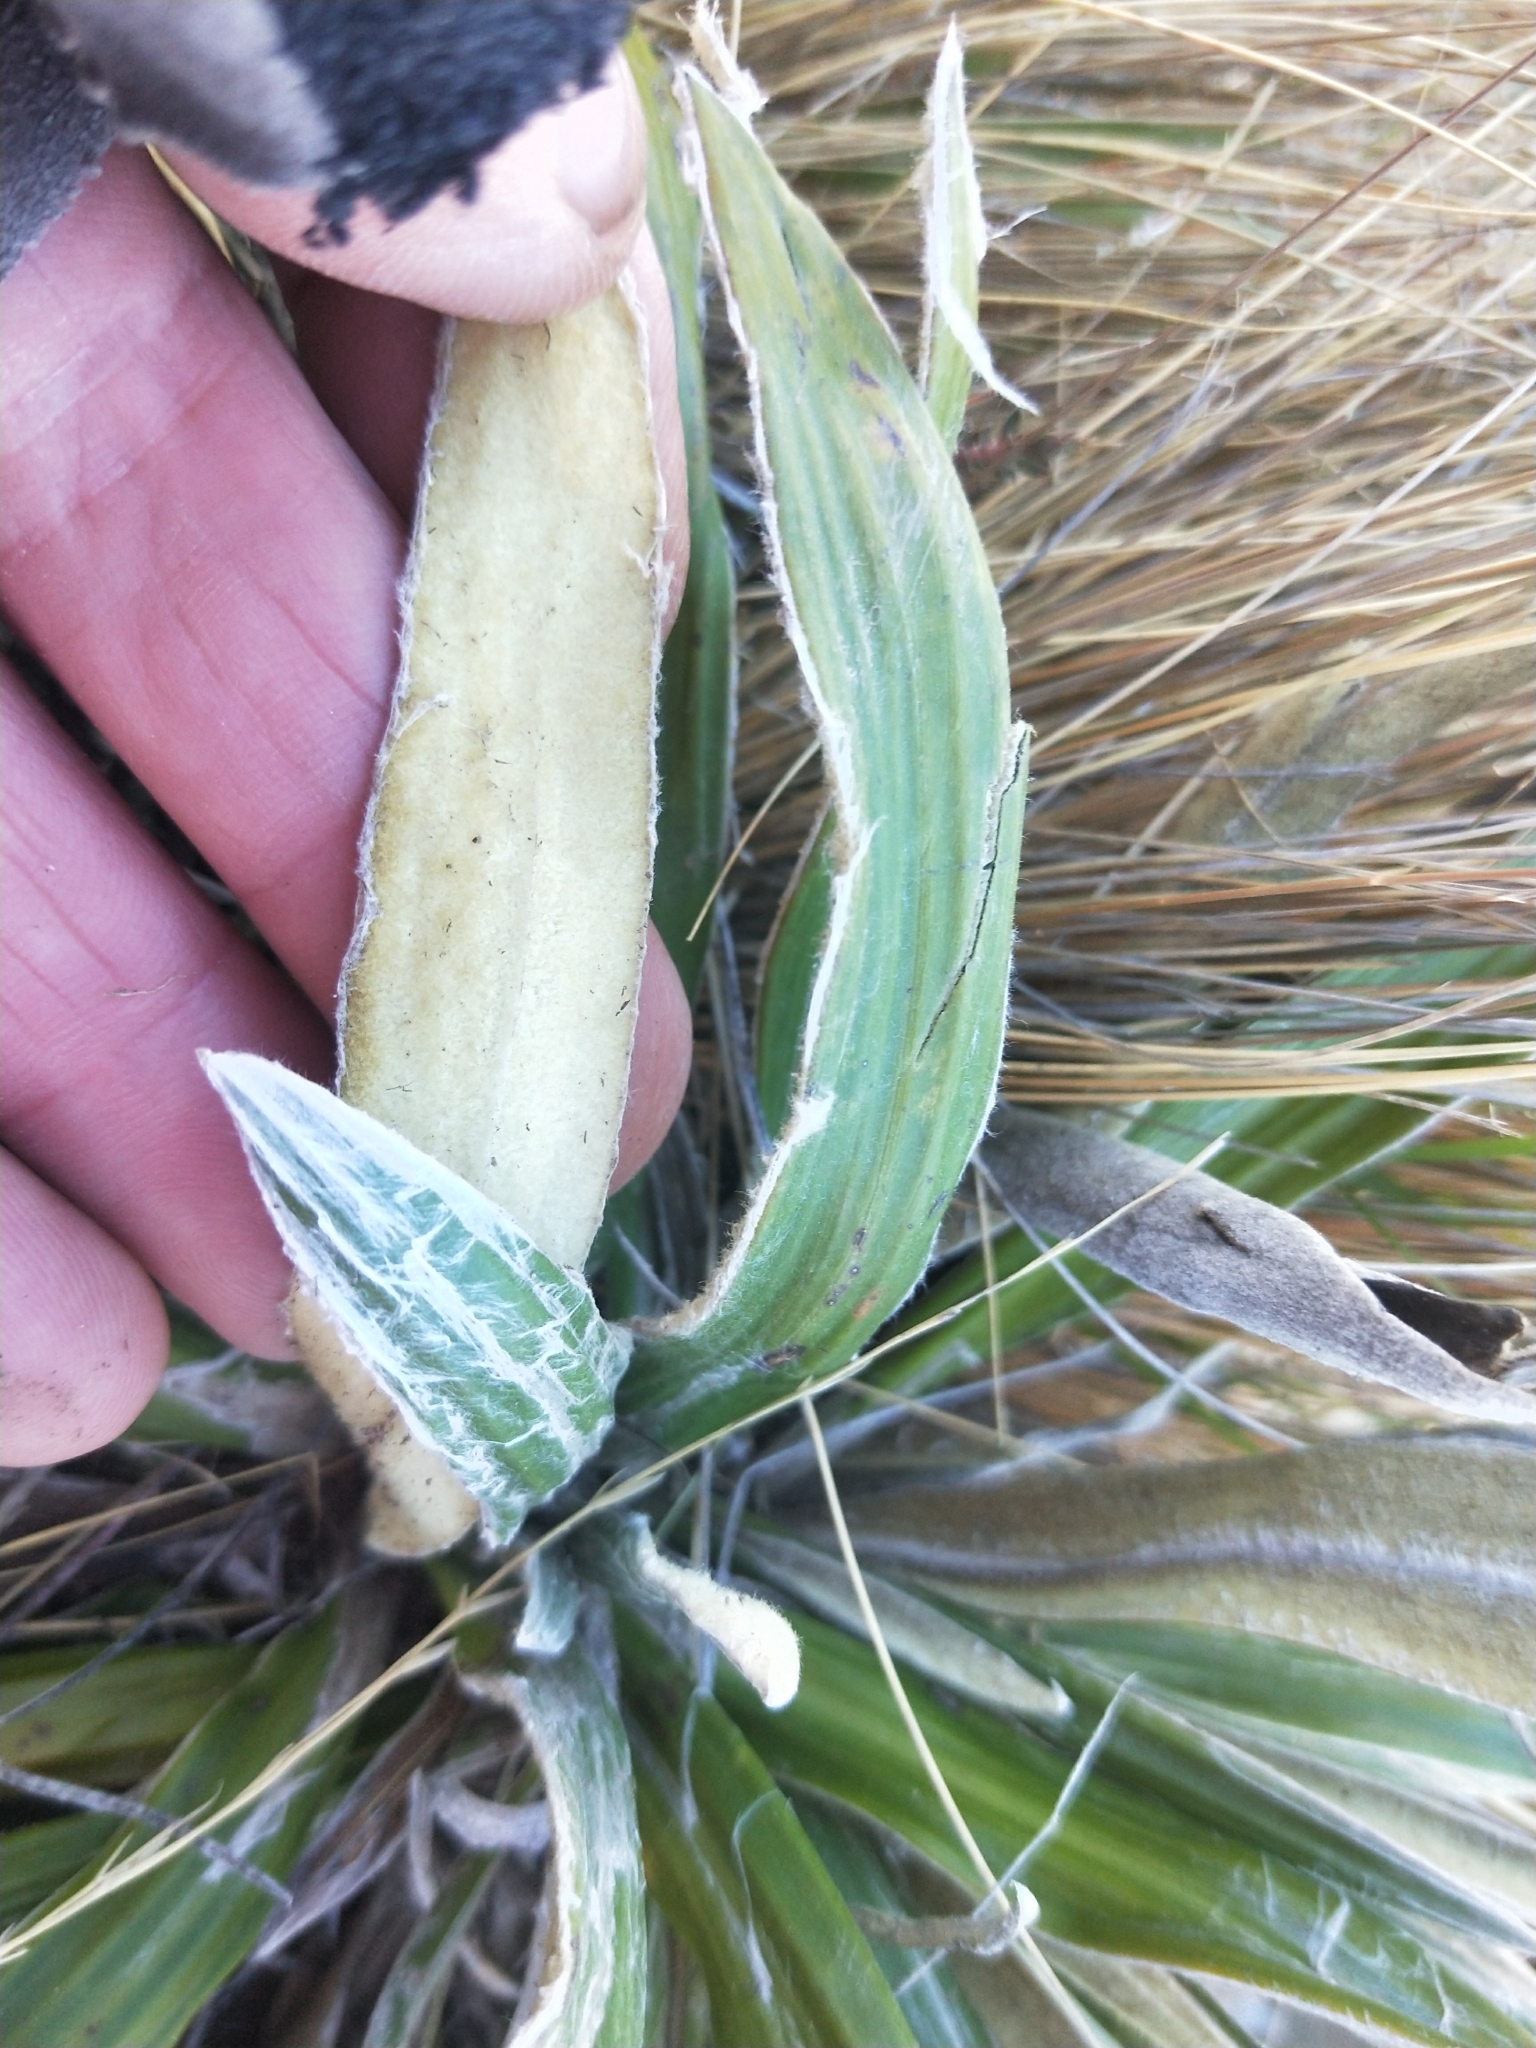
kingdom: Plantae
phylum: Tracheophyta
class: Magnoliopsida
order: Asterales
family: Asteraceae
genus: Celmisia
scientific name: Celmisia spectabilis
